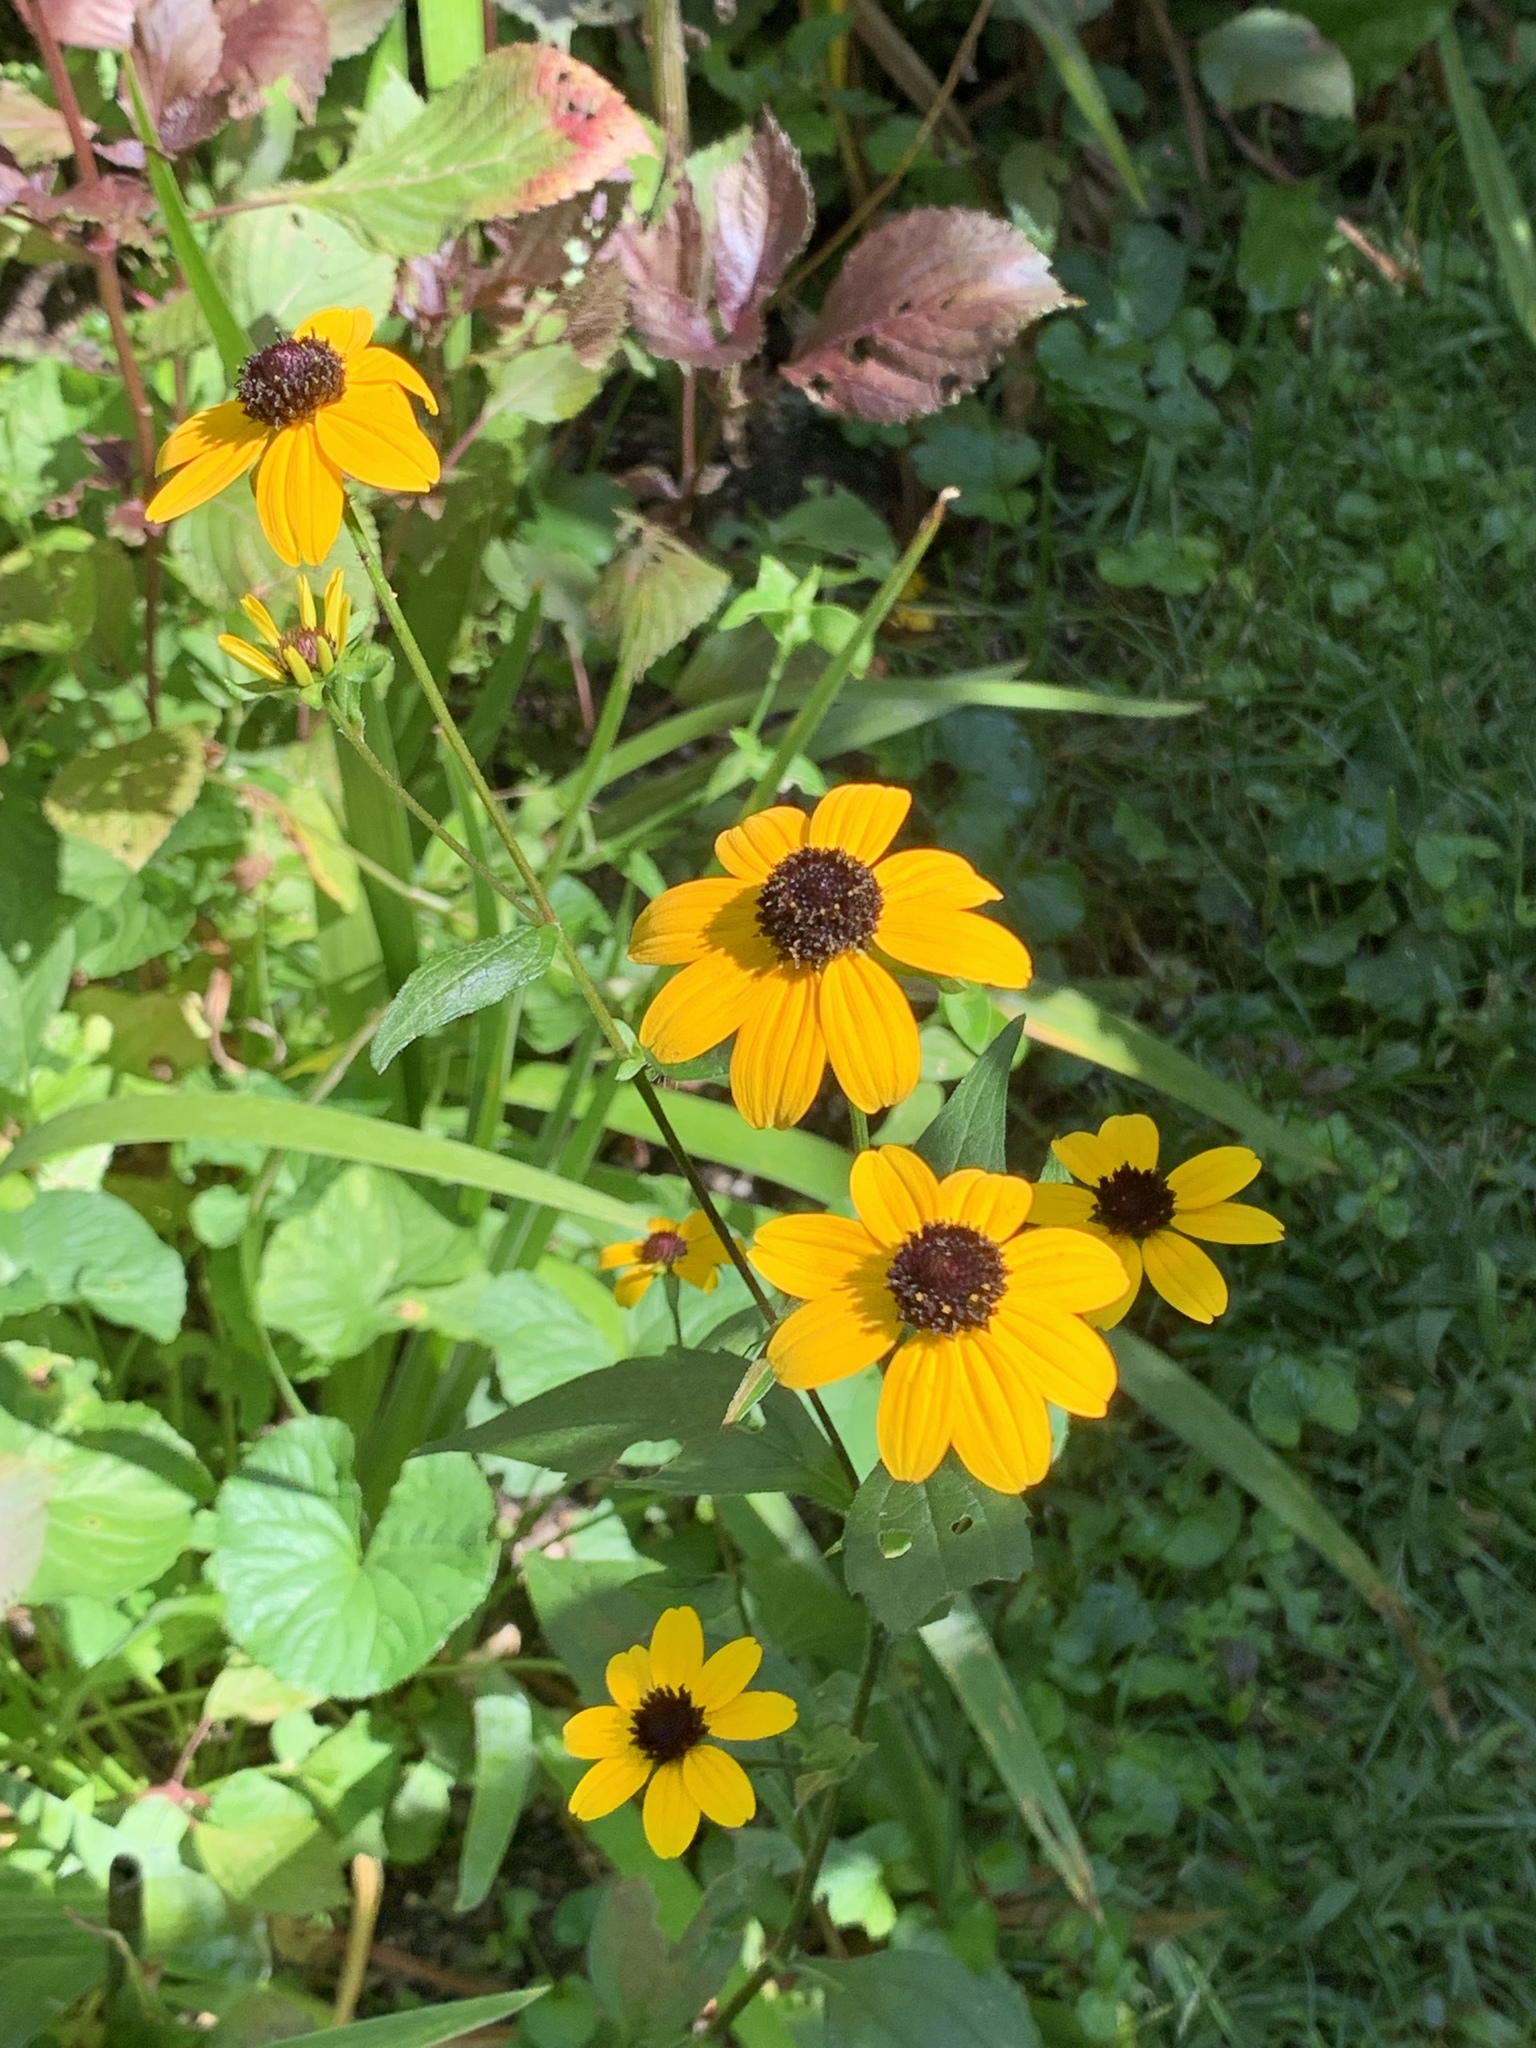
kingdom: Plantae
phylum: Tracheophyta
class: Magnoliopsida
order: Asterales
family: Asteraceae
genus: Rudbeckia
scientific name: Rudbeckia triloba
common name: Thin-leaved coneflower
